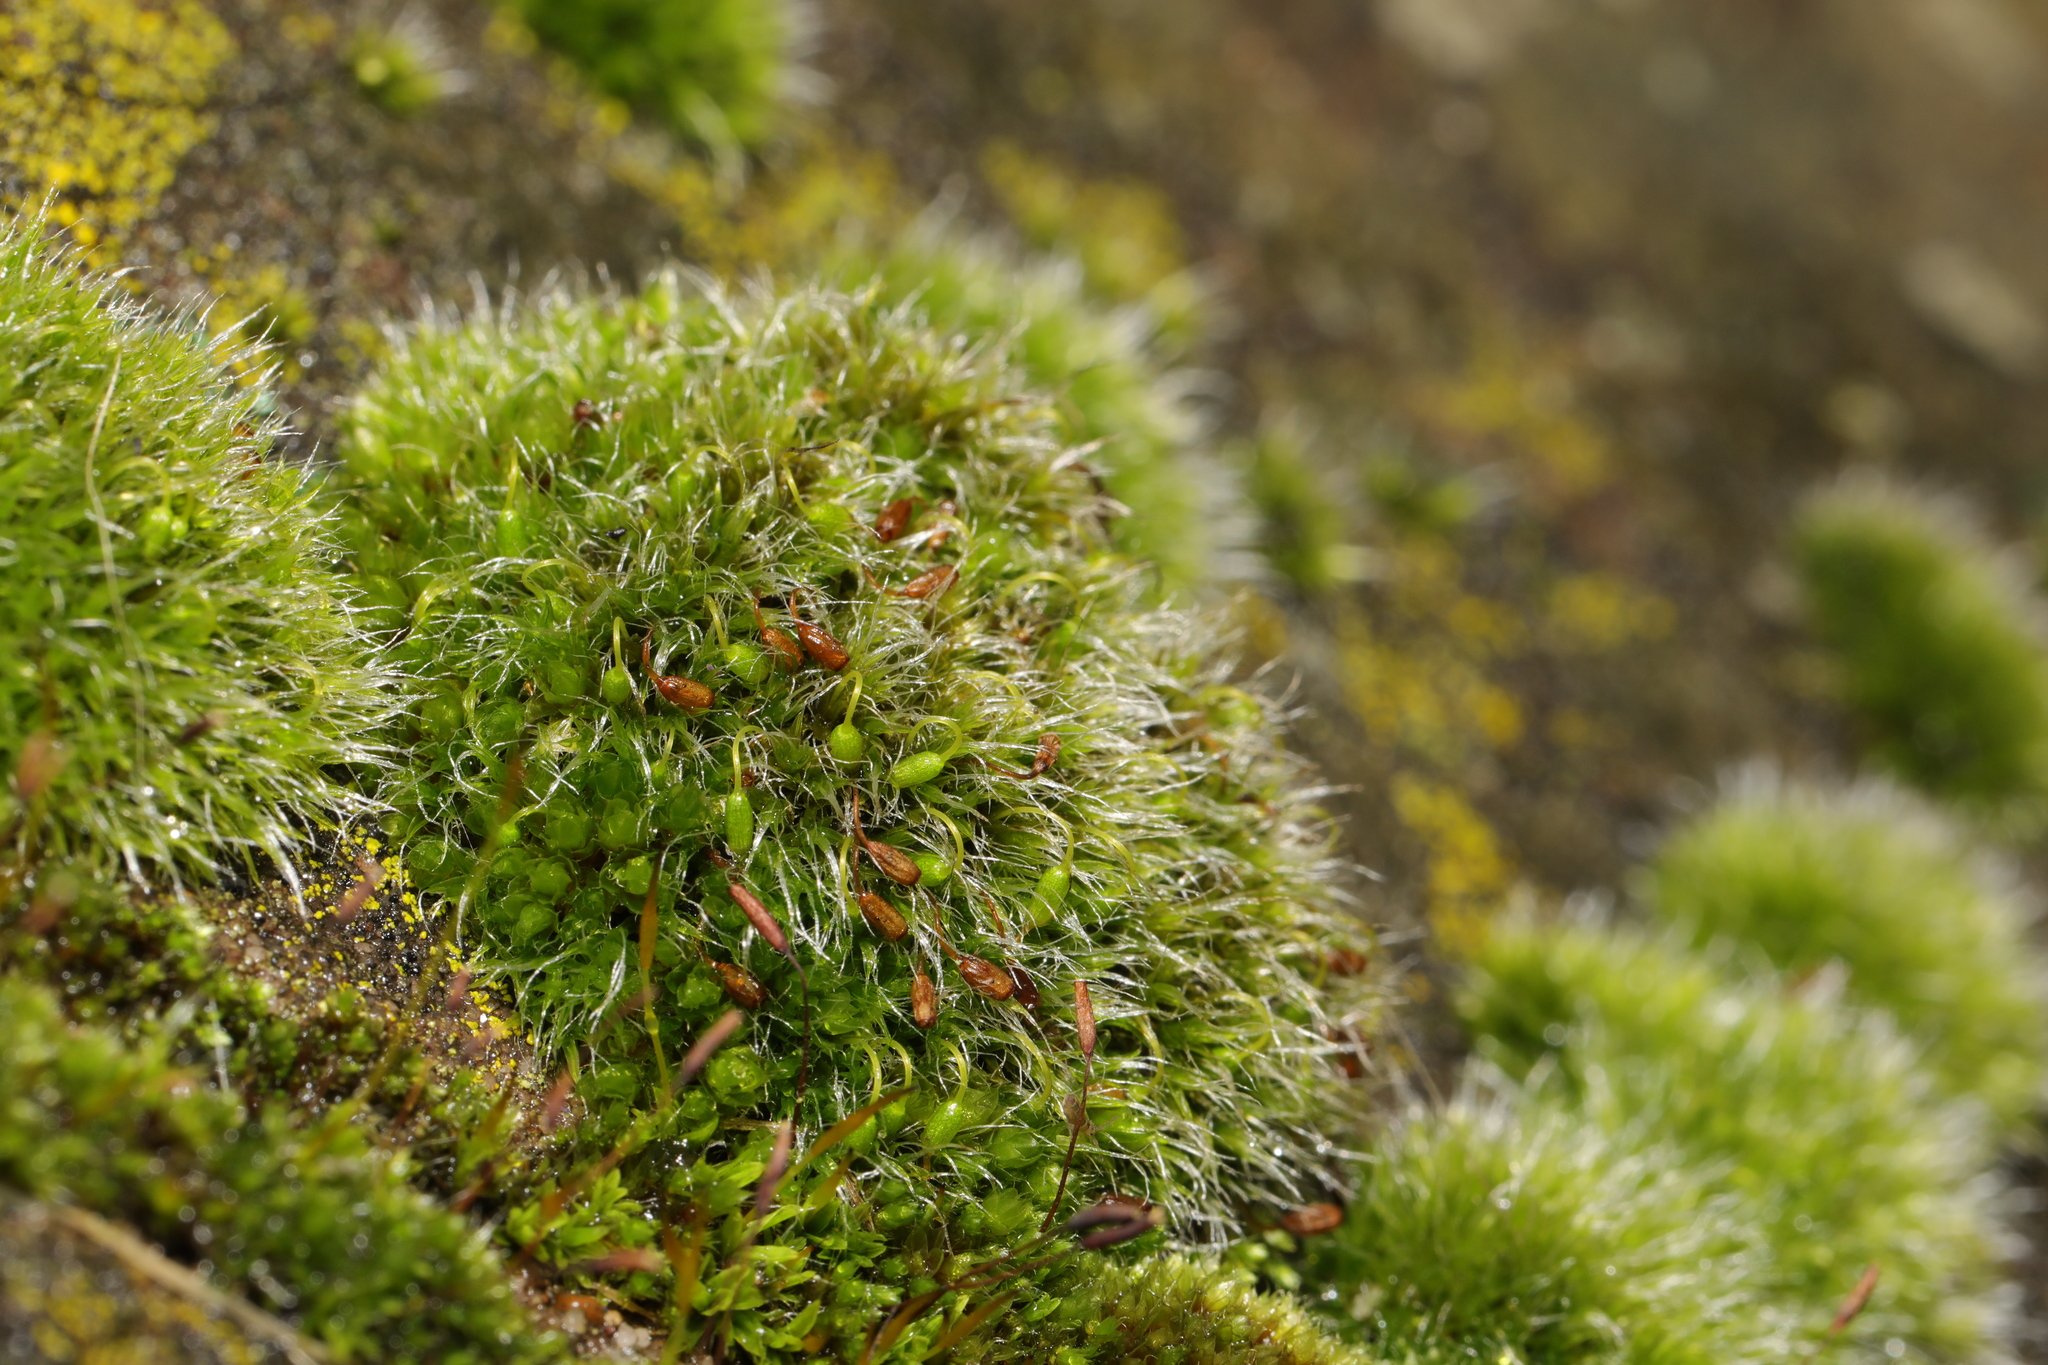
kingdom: Plantae
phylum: Bryophyta
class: Bryopsida
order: Grimmiales
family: Grimmiaceae
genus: Grimmia
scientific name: Grimmia pulvinata
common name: Grey-cushioned grimmia
